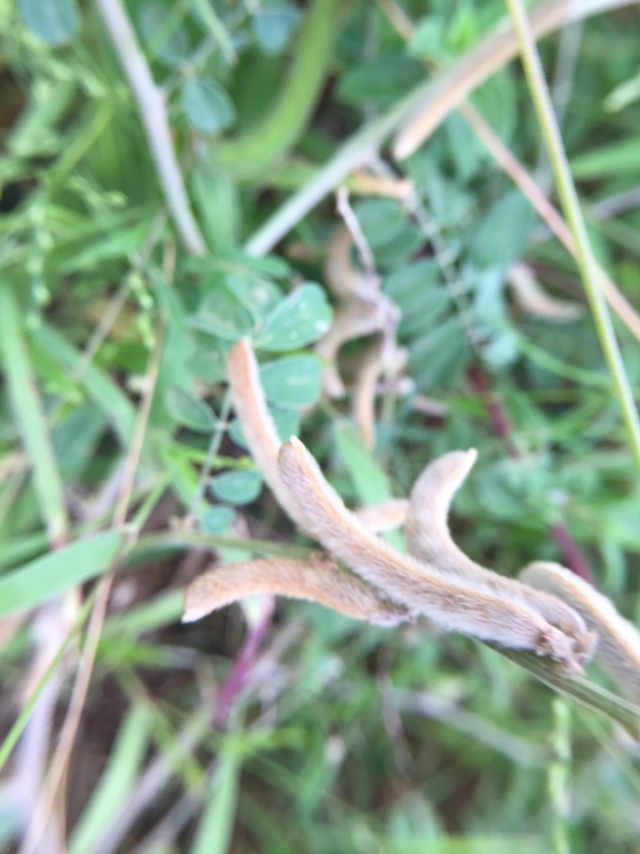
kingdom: Plantae
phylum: Tracheophyta
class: Magnoliopsida
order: Fabales
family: Fabaceae
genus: Tephrosia
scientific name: Tephrosia villosa
